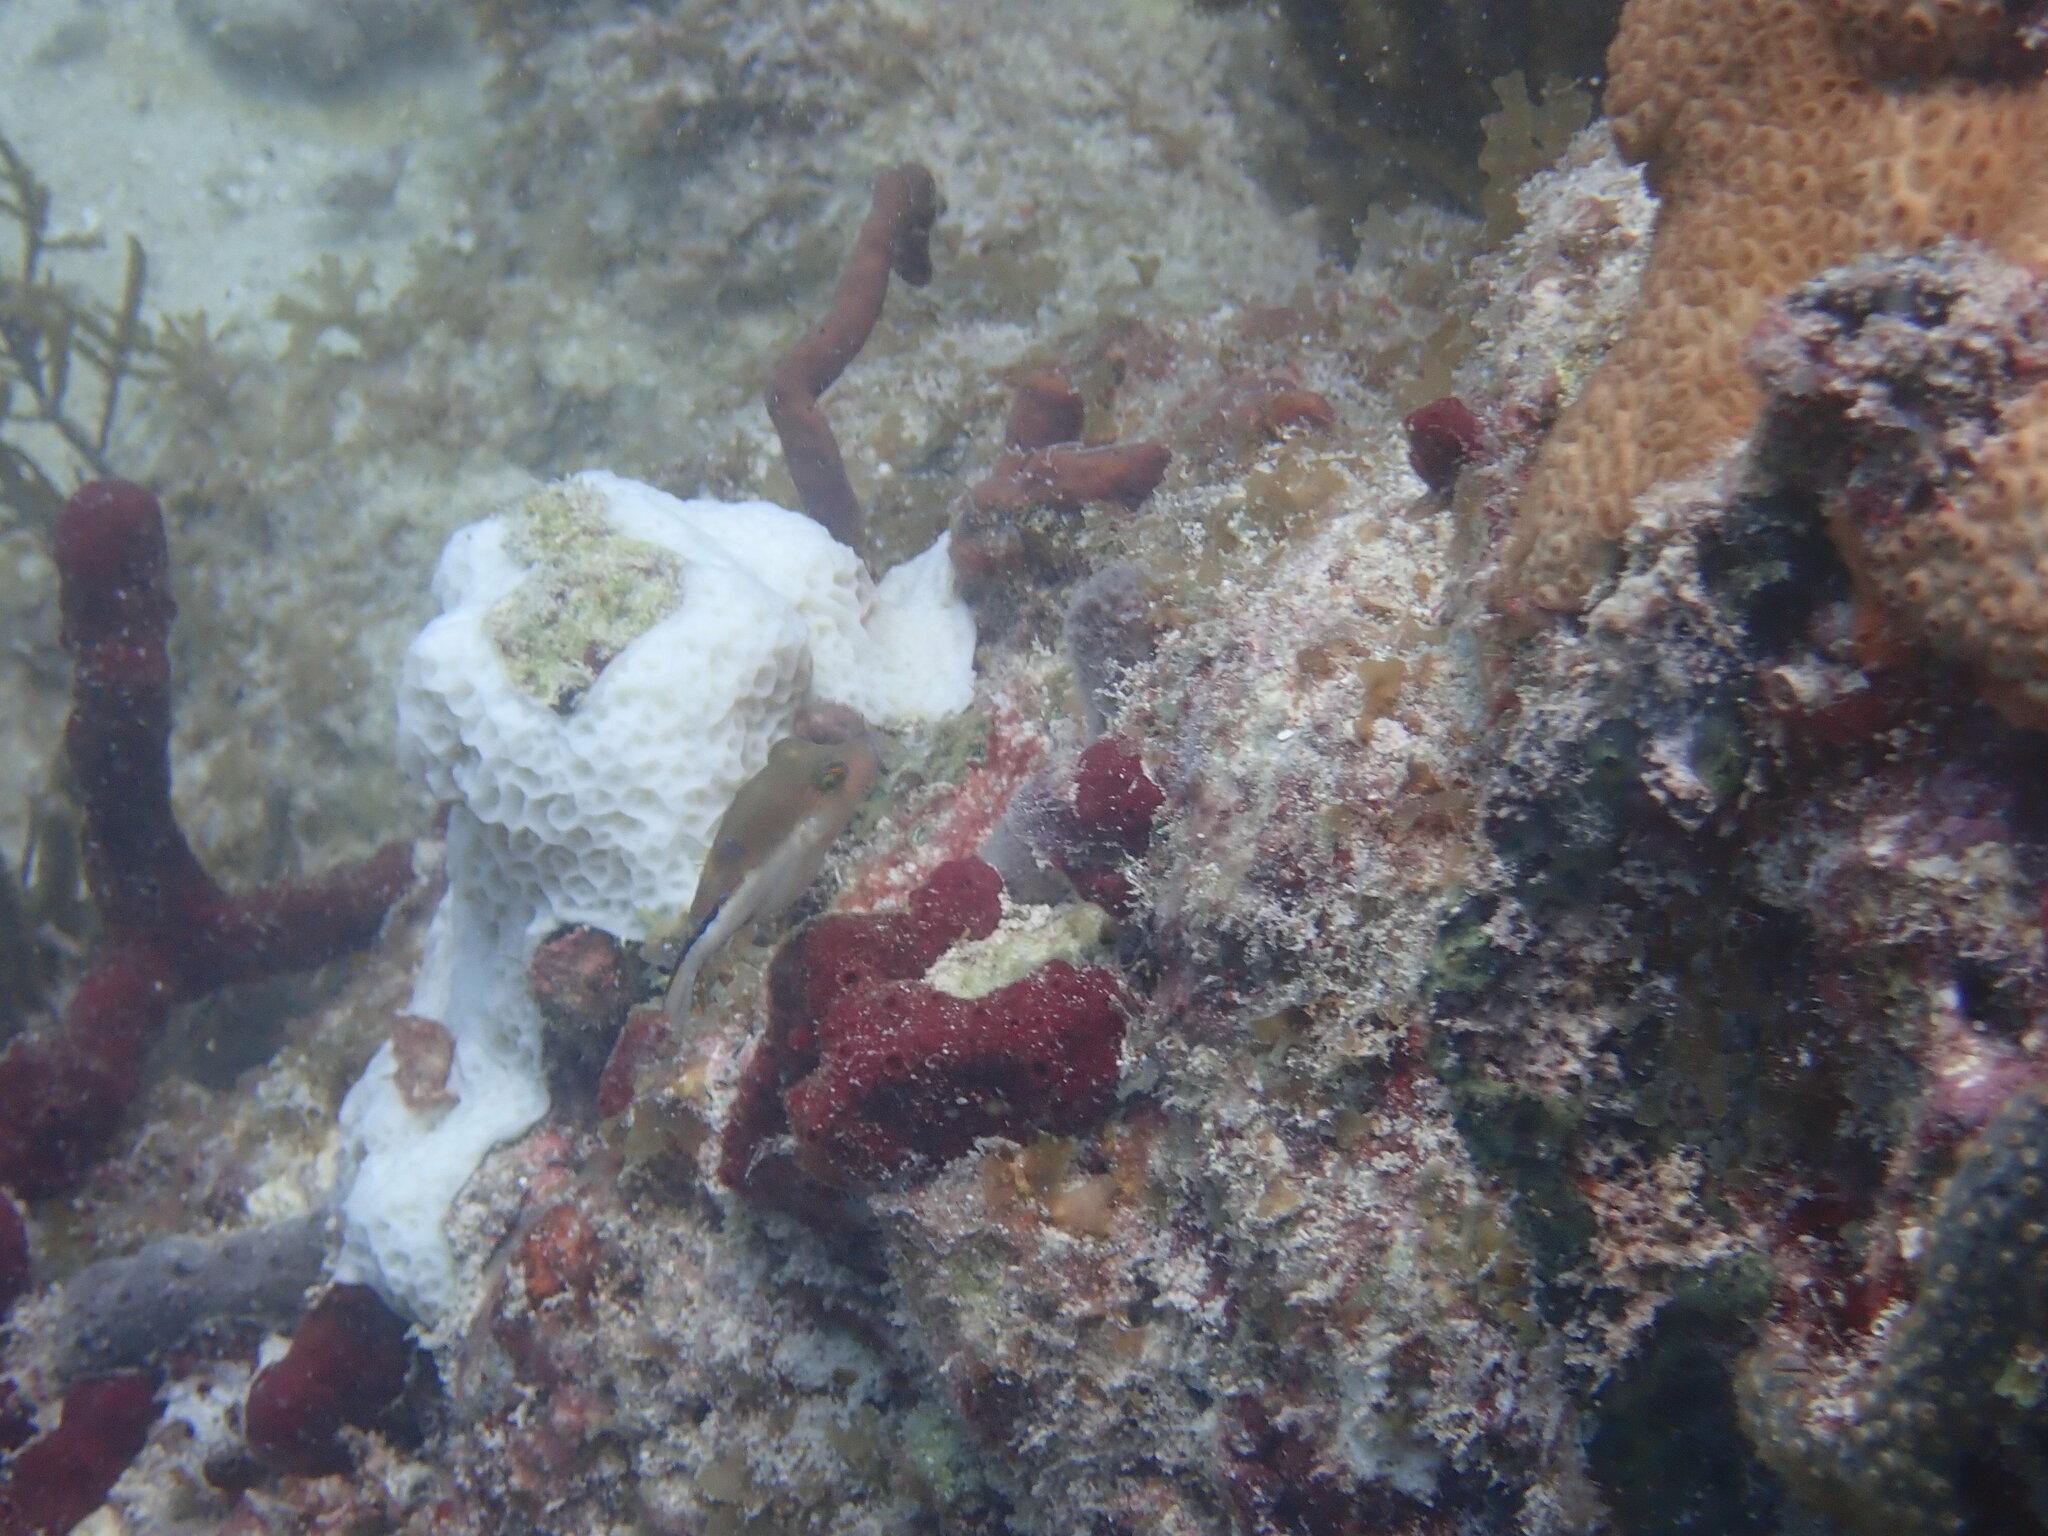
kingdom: Animalia
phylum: Chordata
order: Tetraodontiformes
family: Tetraodontidae
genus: Canthigaster
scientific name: Canthigaster rostrata
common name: Caribbean sharpnose-puffer
